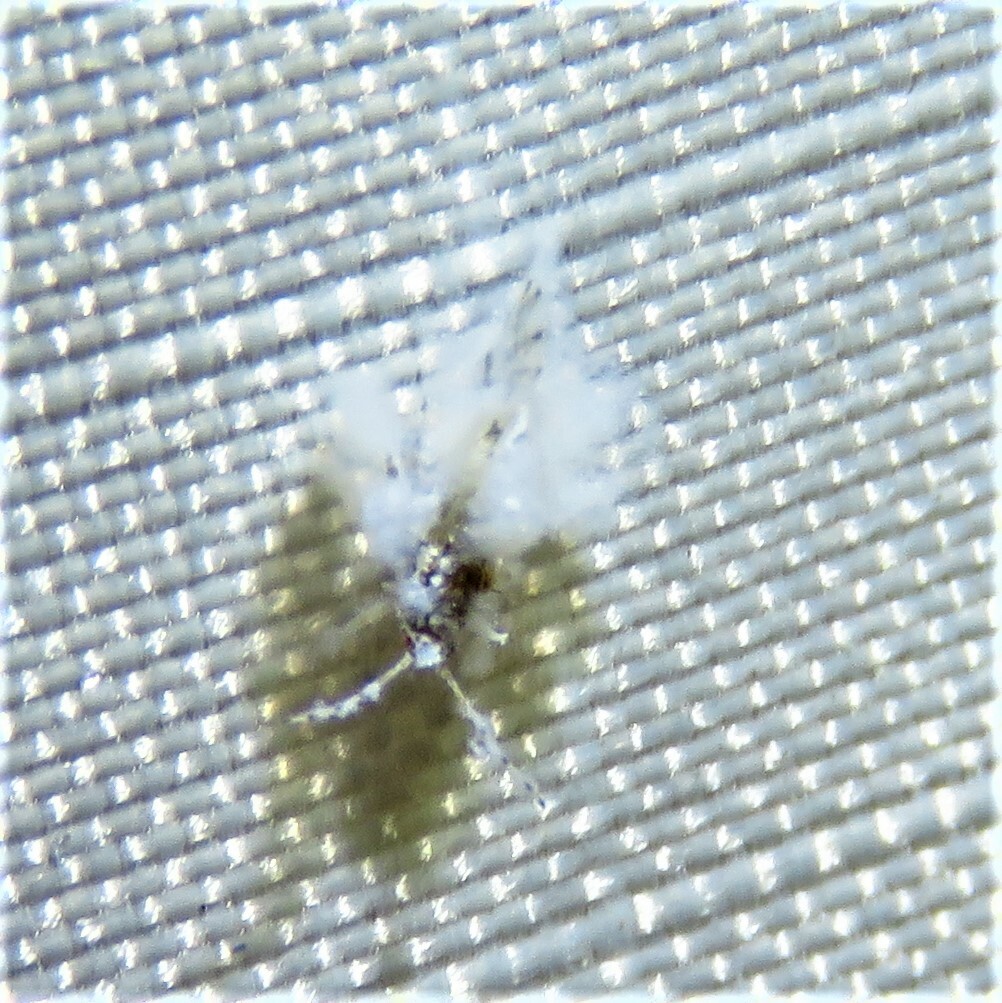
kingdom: Animalia
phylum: Arthropoda
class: Insecta
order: Hemiptera
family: Aphididae
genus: Shivaphis
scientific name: Shivaphis celti
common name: Asian wooly hackberry aphid
